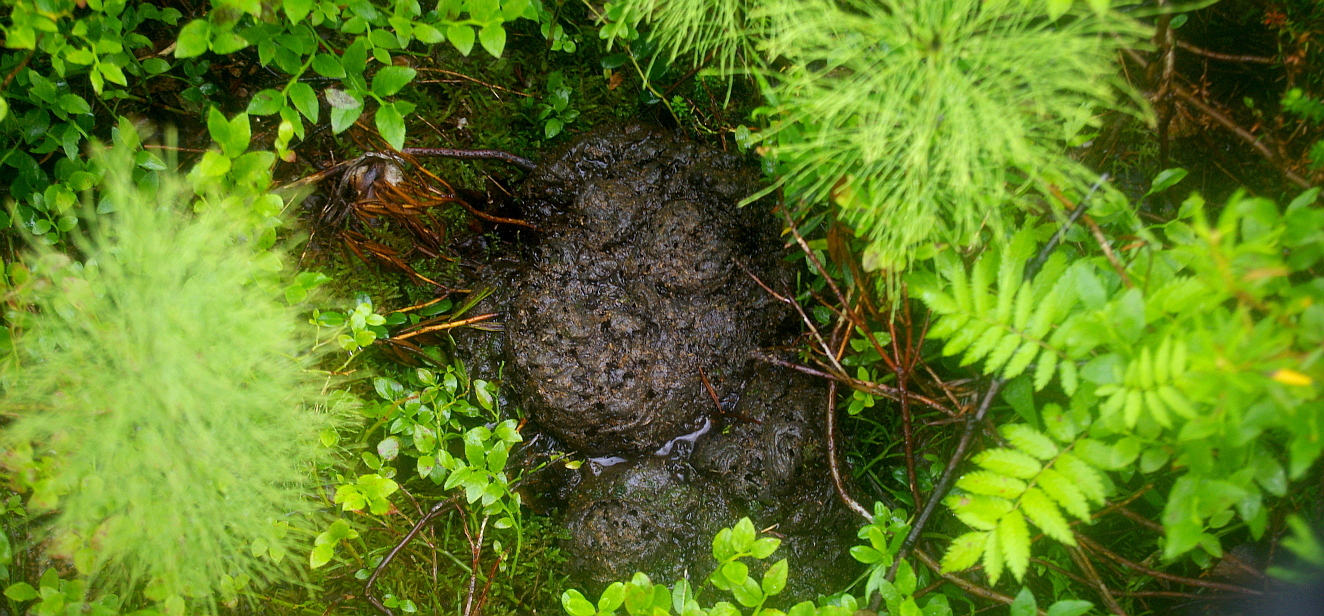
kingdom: Animalia
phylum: Chordata
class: Mammalia
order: Carnivora
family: Ursidae
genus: Ursus
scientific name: Ursus arctos
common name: Brown bear
